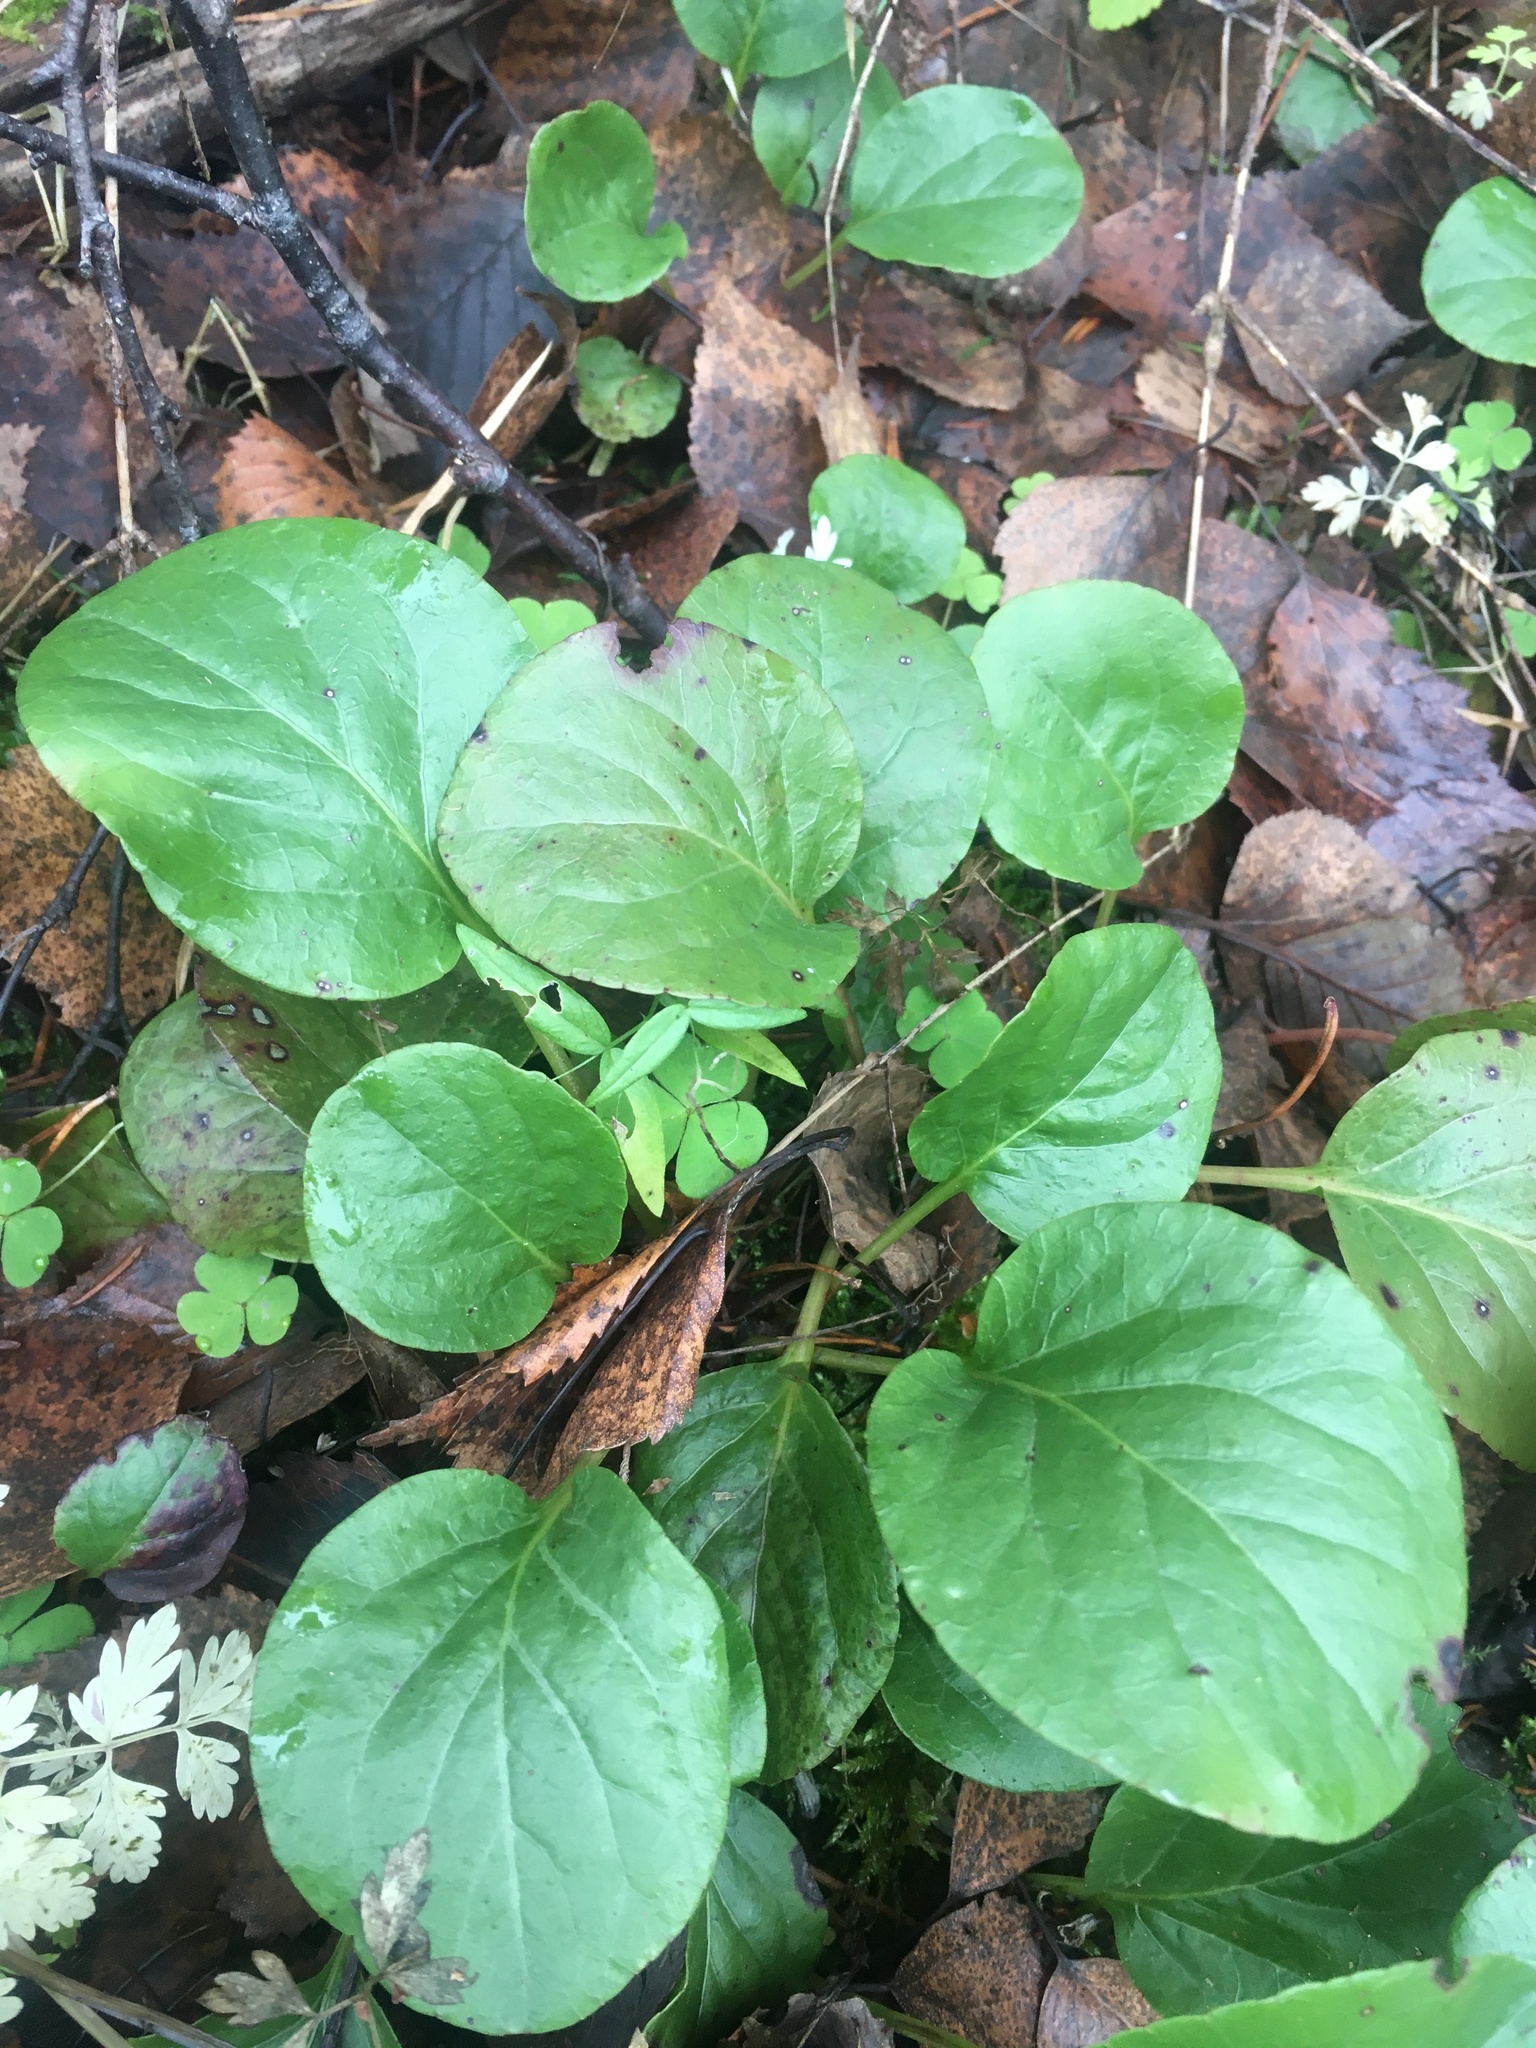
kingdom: Plantae
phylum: Tracheophyta
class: Magnoliopsida
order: Ericales
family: Ericaceae
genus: Pyrola
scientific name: Pyrola rotundifolia
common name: Round-leaved wintergreen
